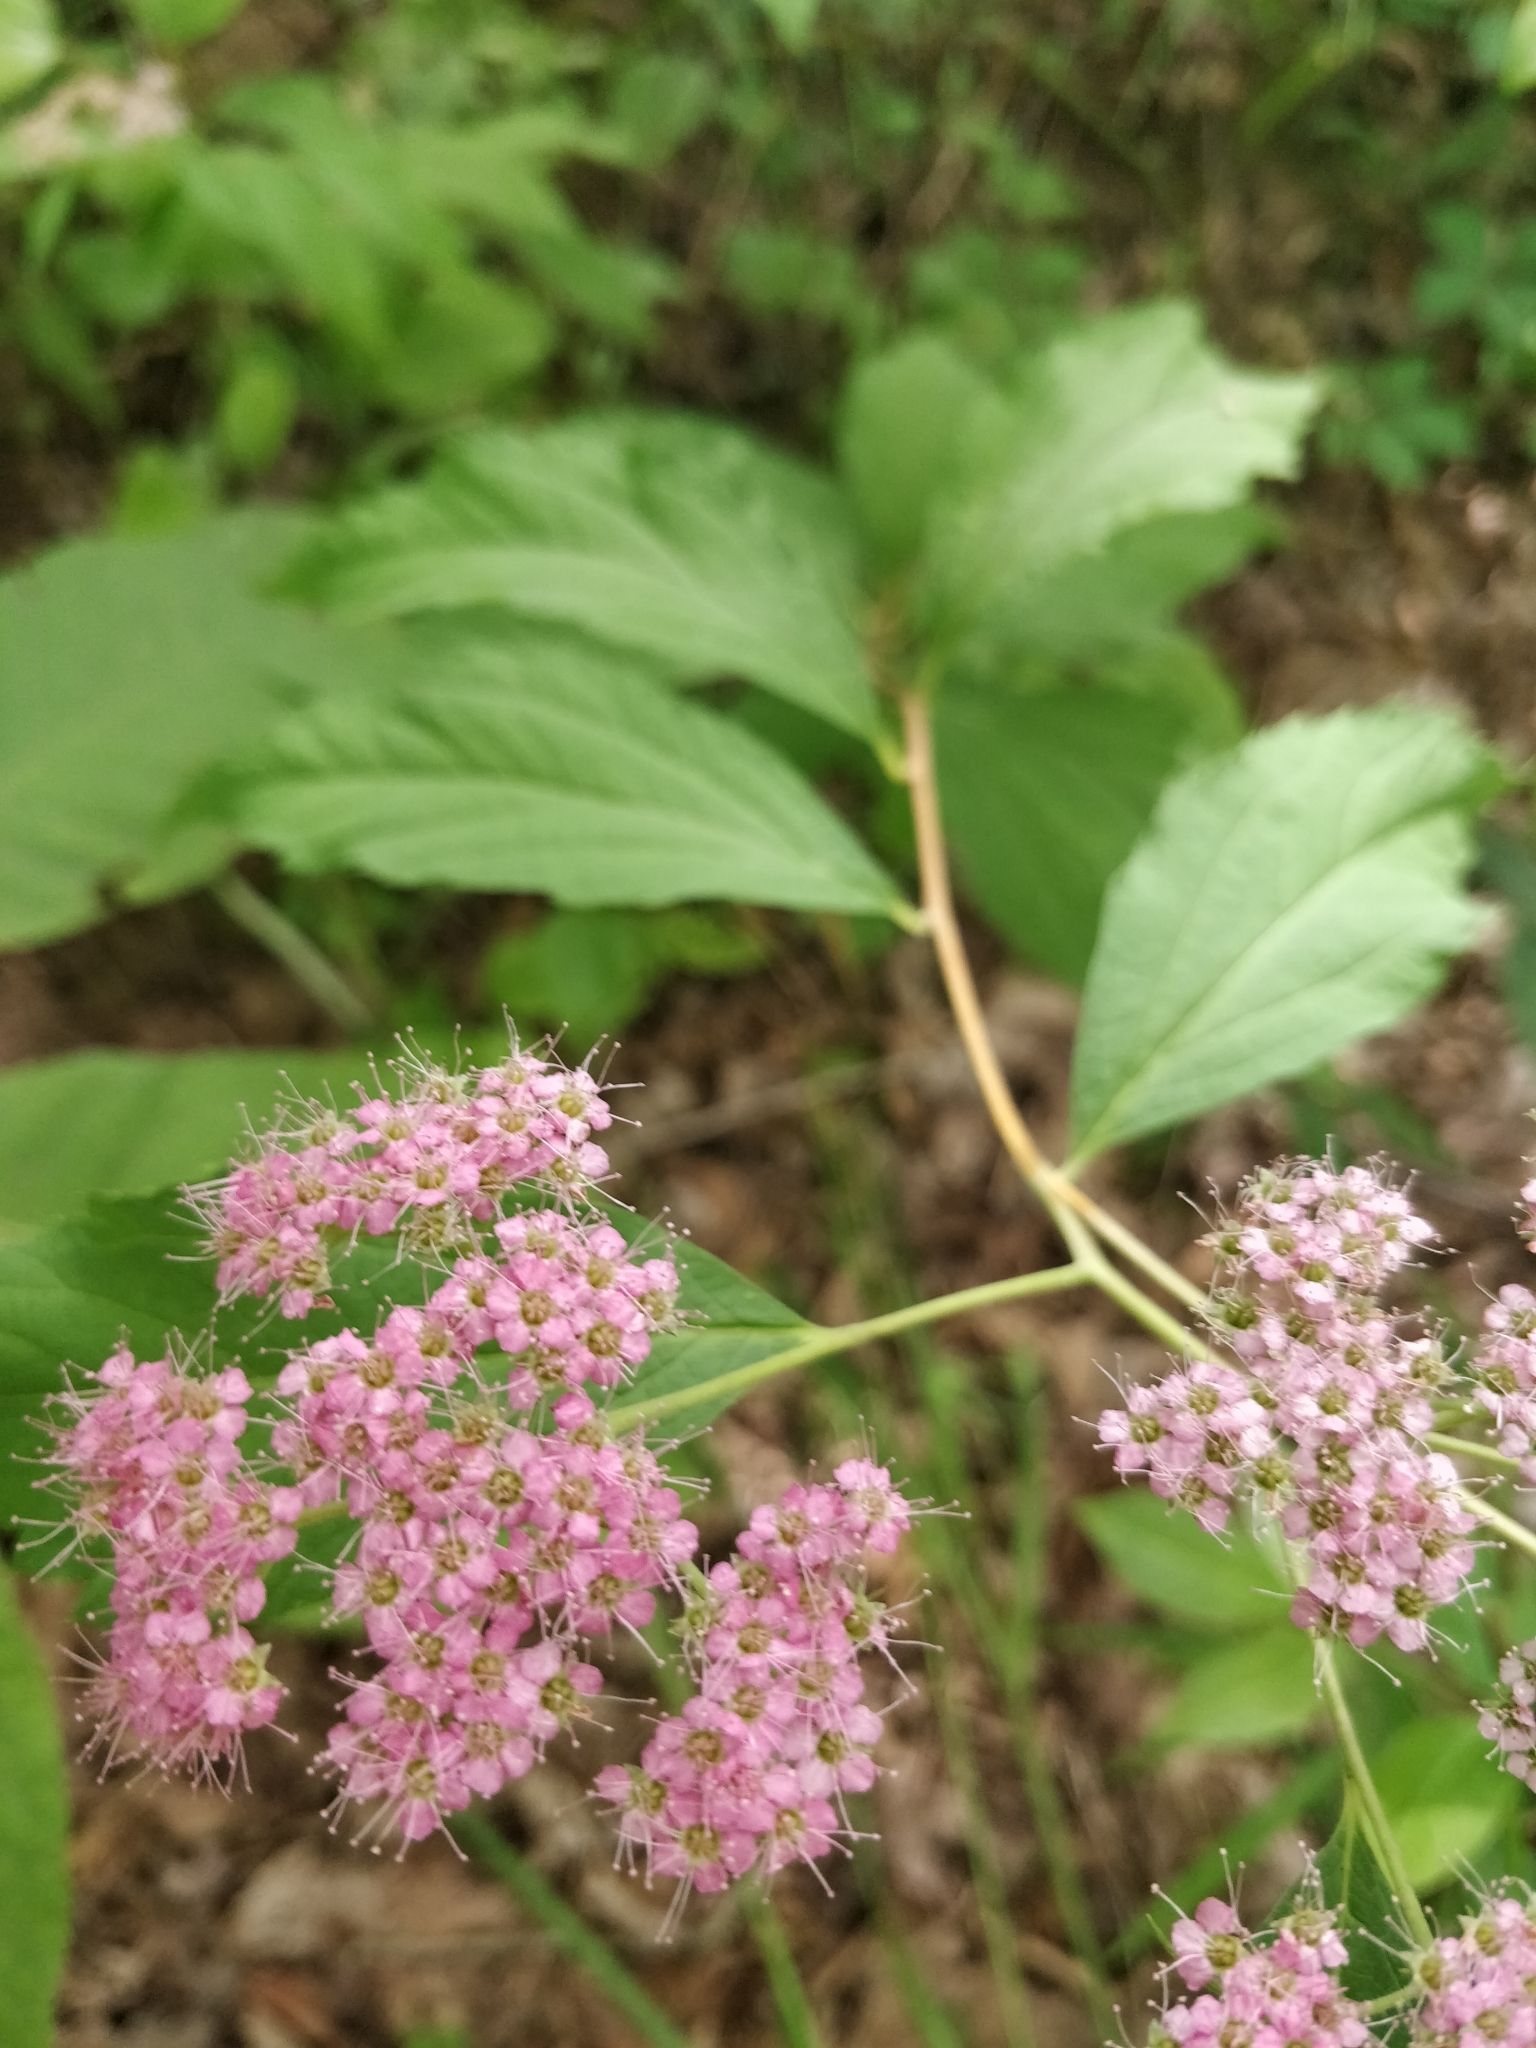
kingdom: Plantae
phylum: Tracheophyta
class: Magnoliopsida
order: Rosales
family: Rosaceae
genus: Spiraea
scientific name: Spiraea japonica
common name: Japanese spiraea
